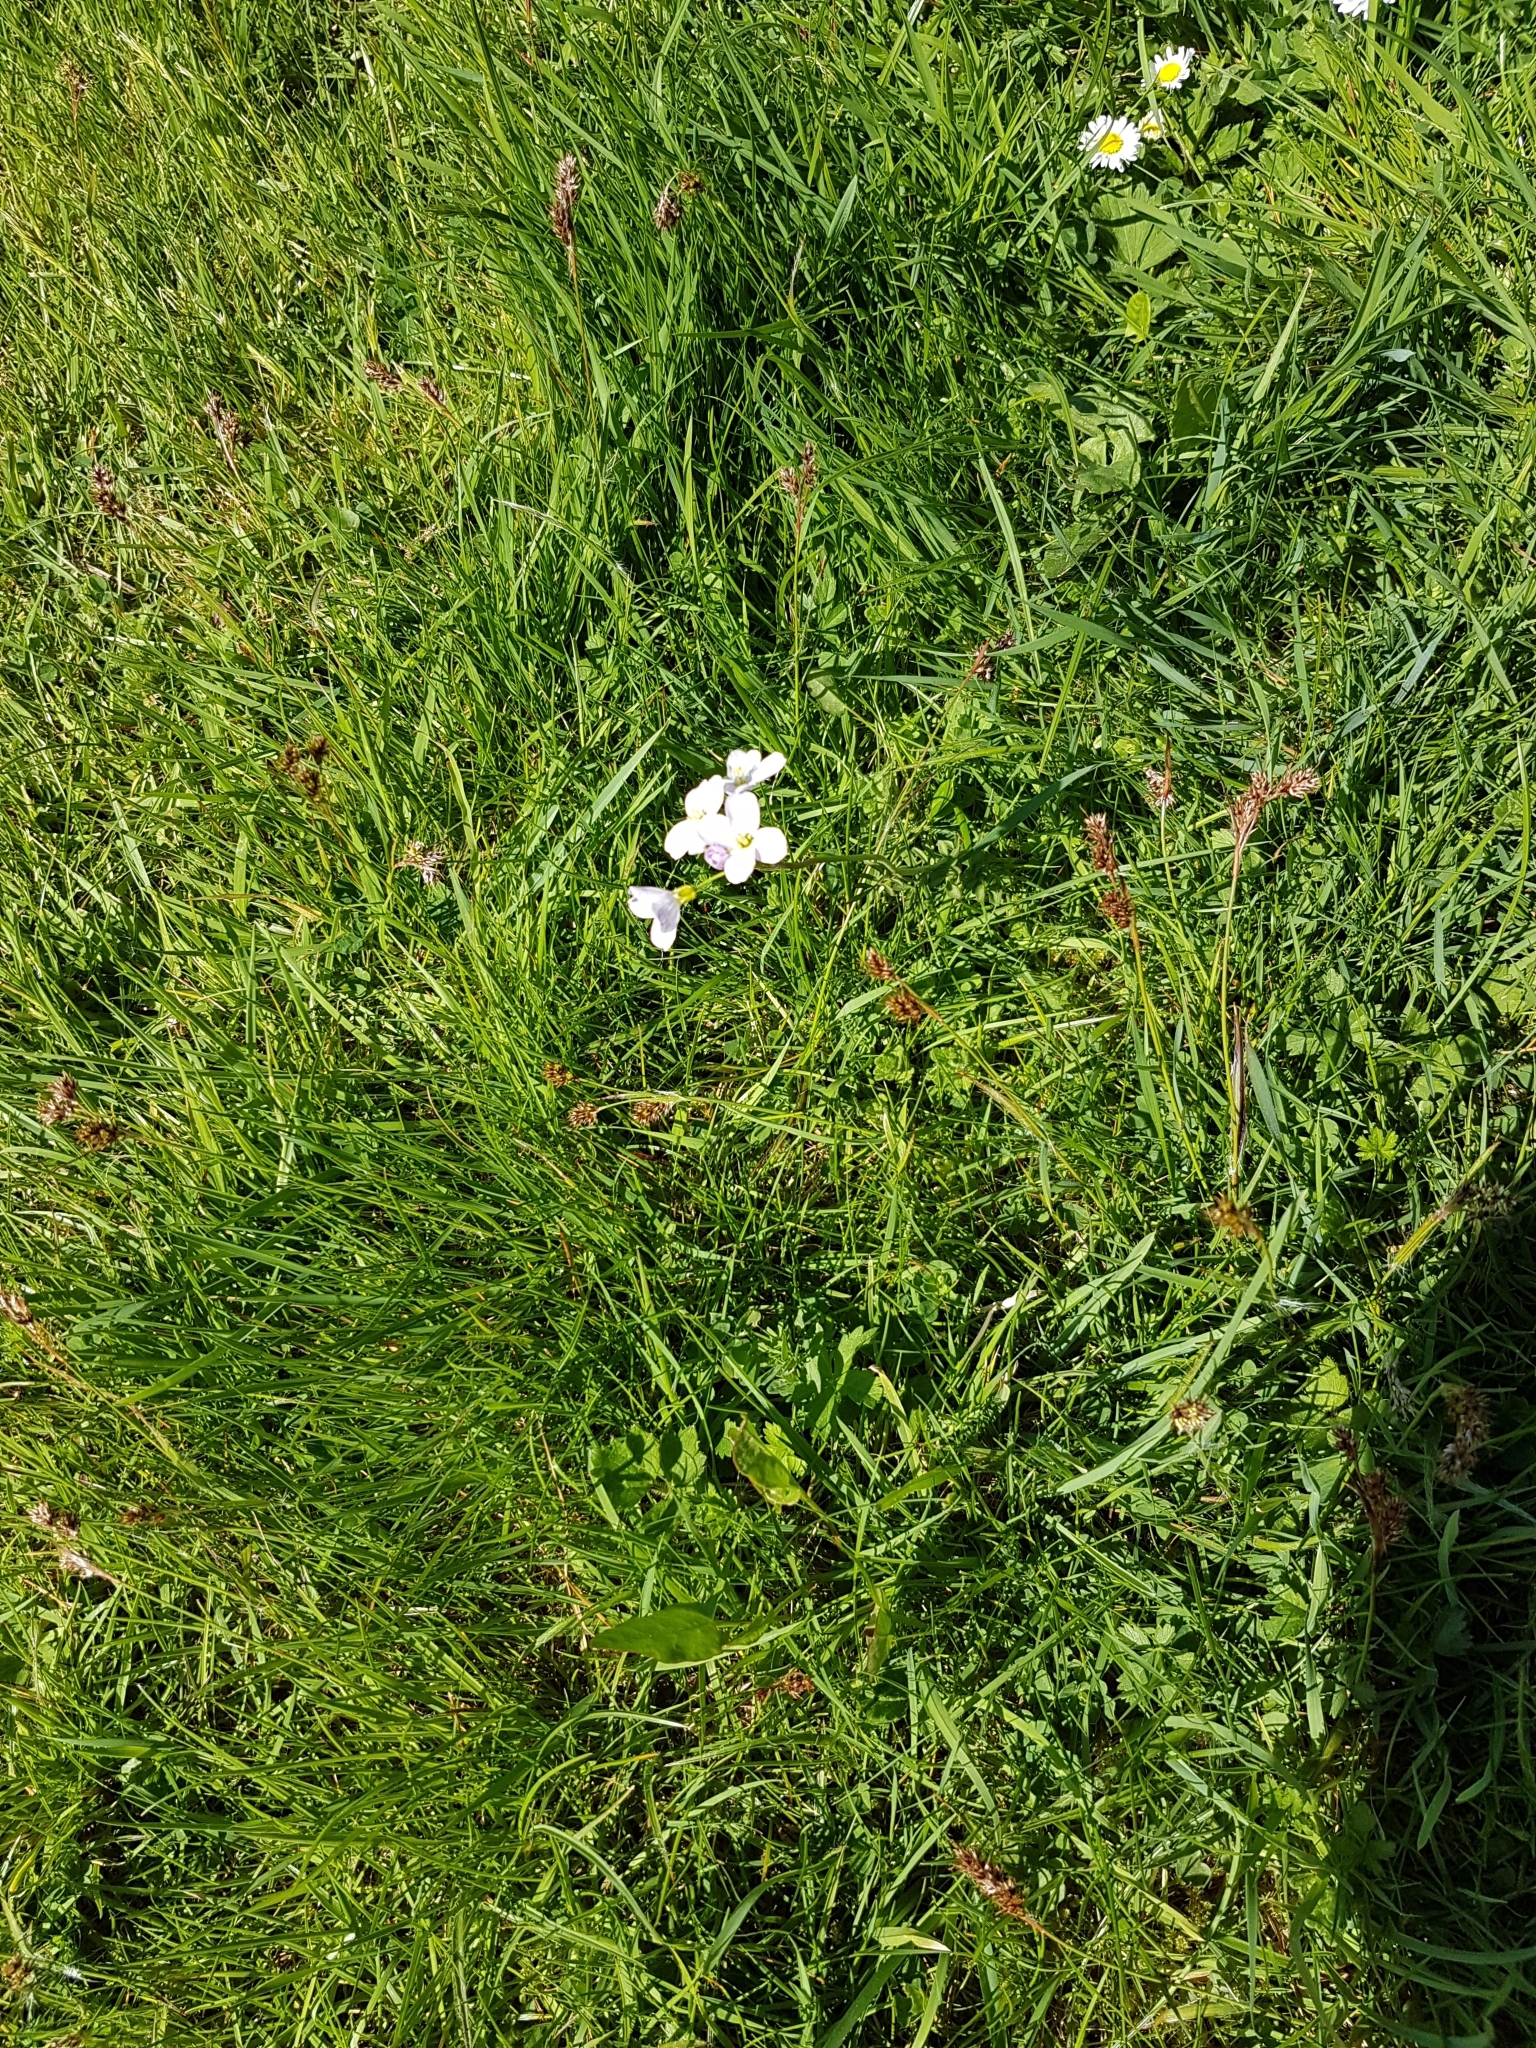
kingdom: Plantae
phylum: Tracheophyta
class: Magnoliopsida
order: Brassicales
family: Brassicaceae
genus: Cardamine
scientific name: Cardamine pratensis
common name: Cuckoo flower
